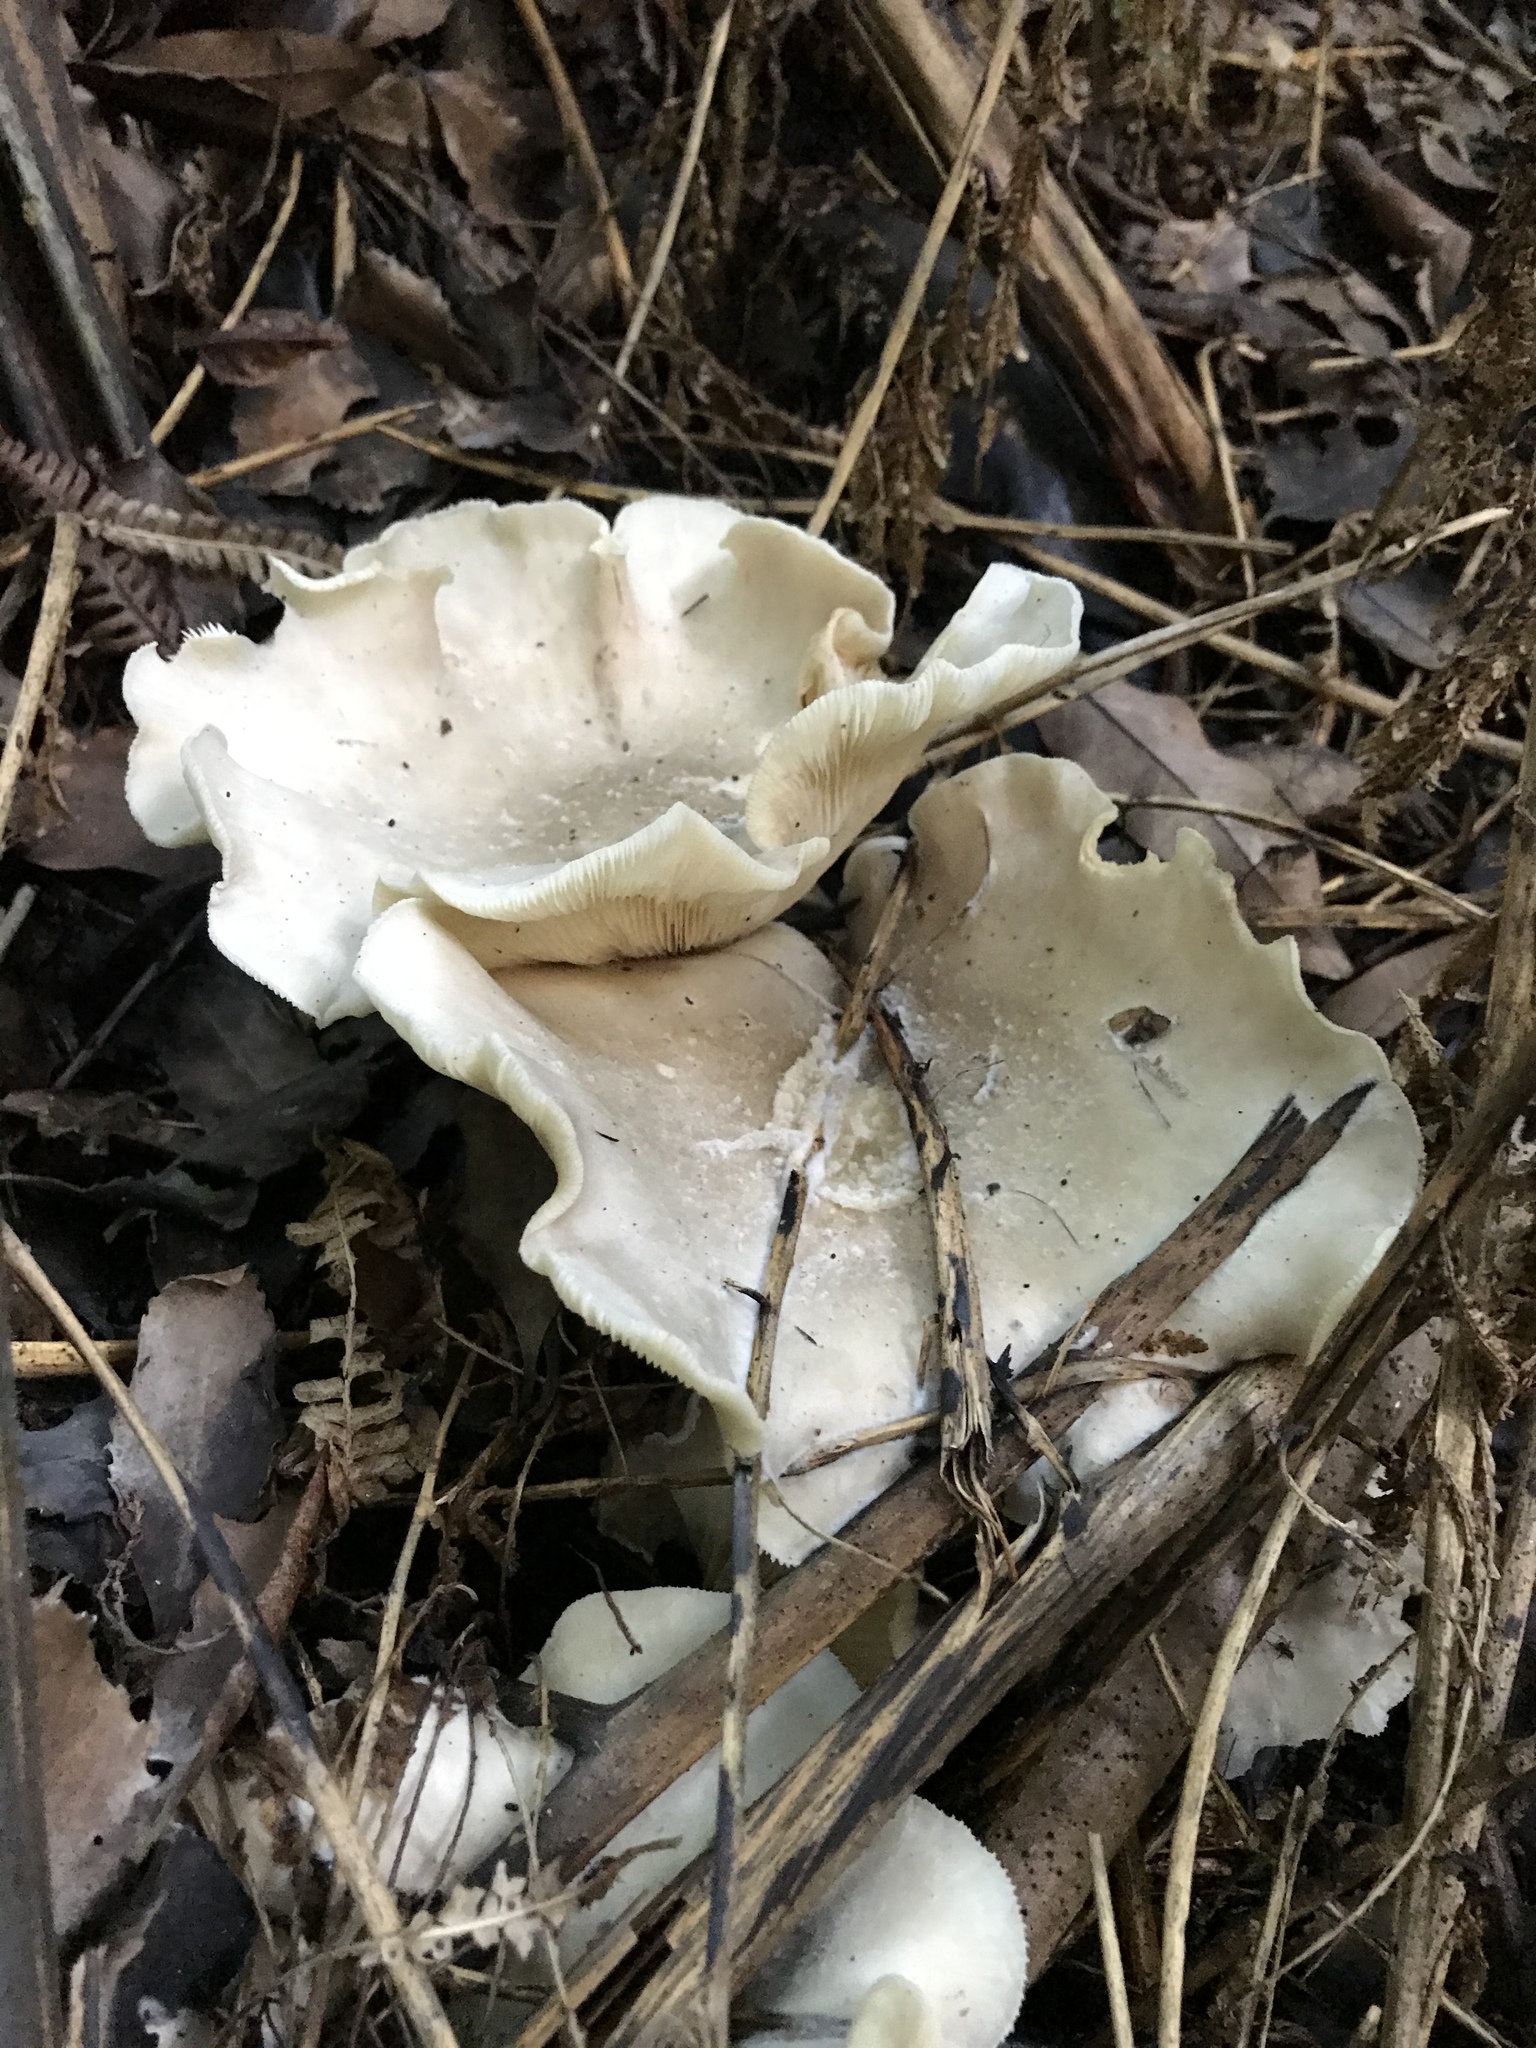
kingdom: Fungi
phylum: Basidiomycota
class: Agaricomycetes
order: Agaricales
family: Tricholomataceae
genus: Clitocybe
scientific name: Clitocybe nebularis
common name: Clouded agaric
